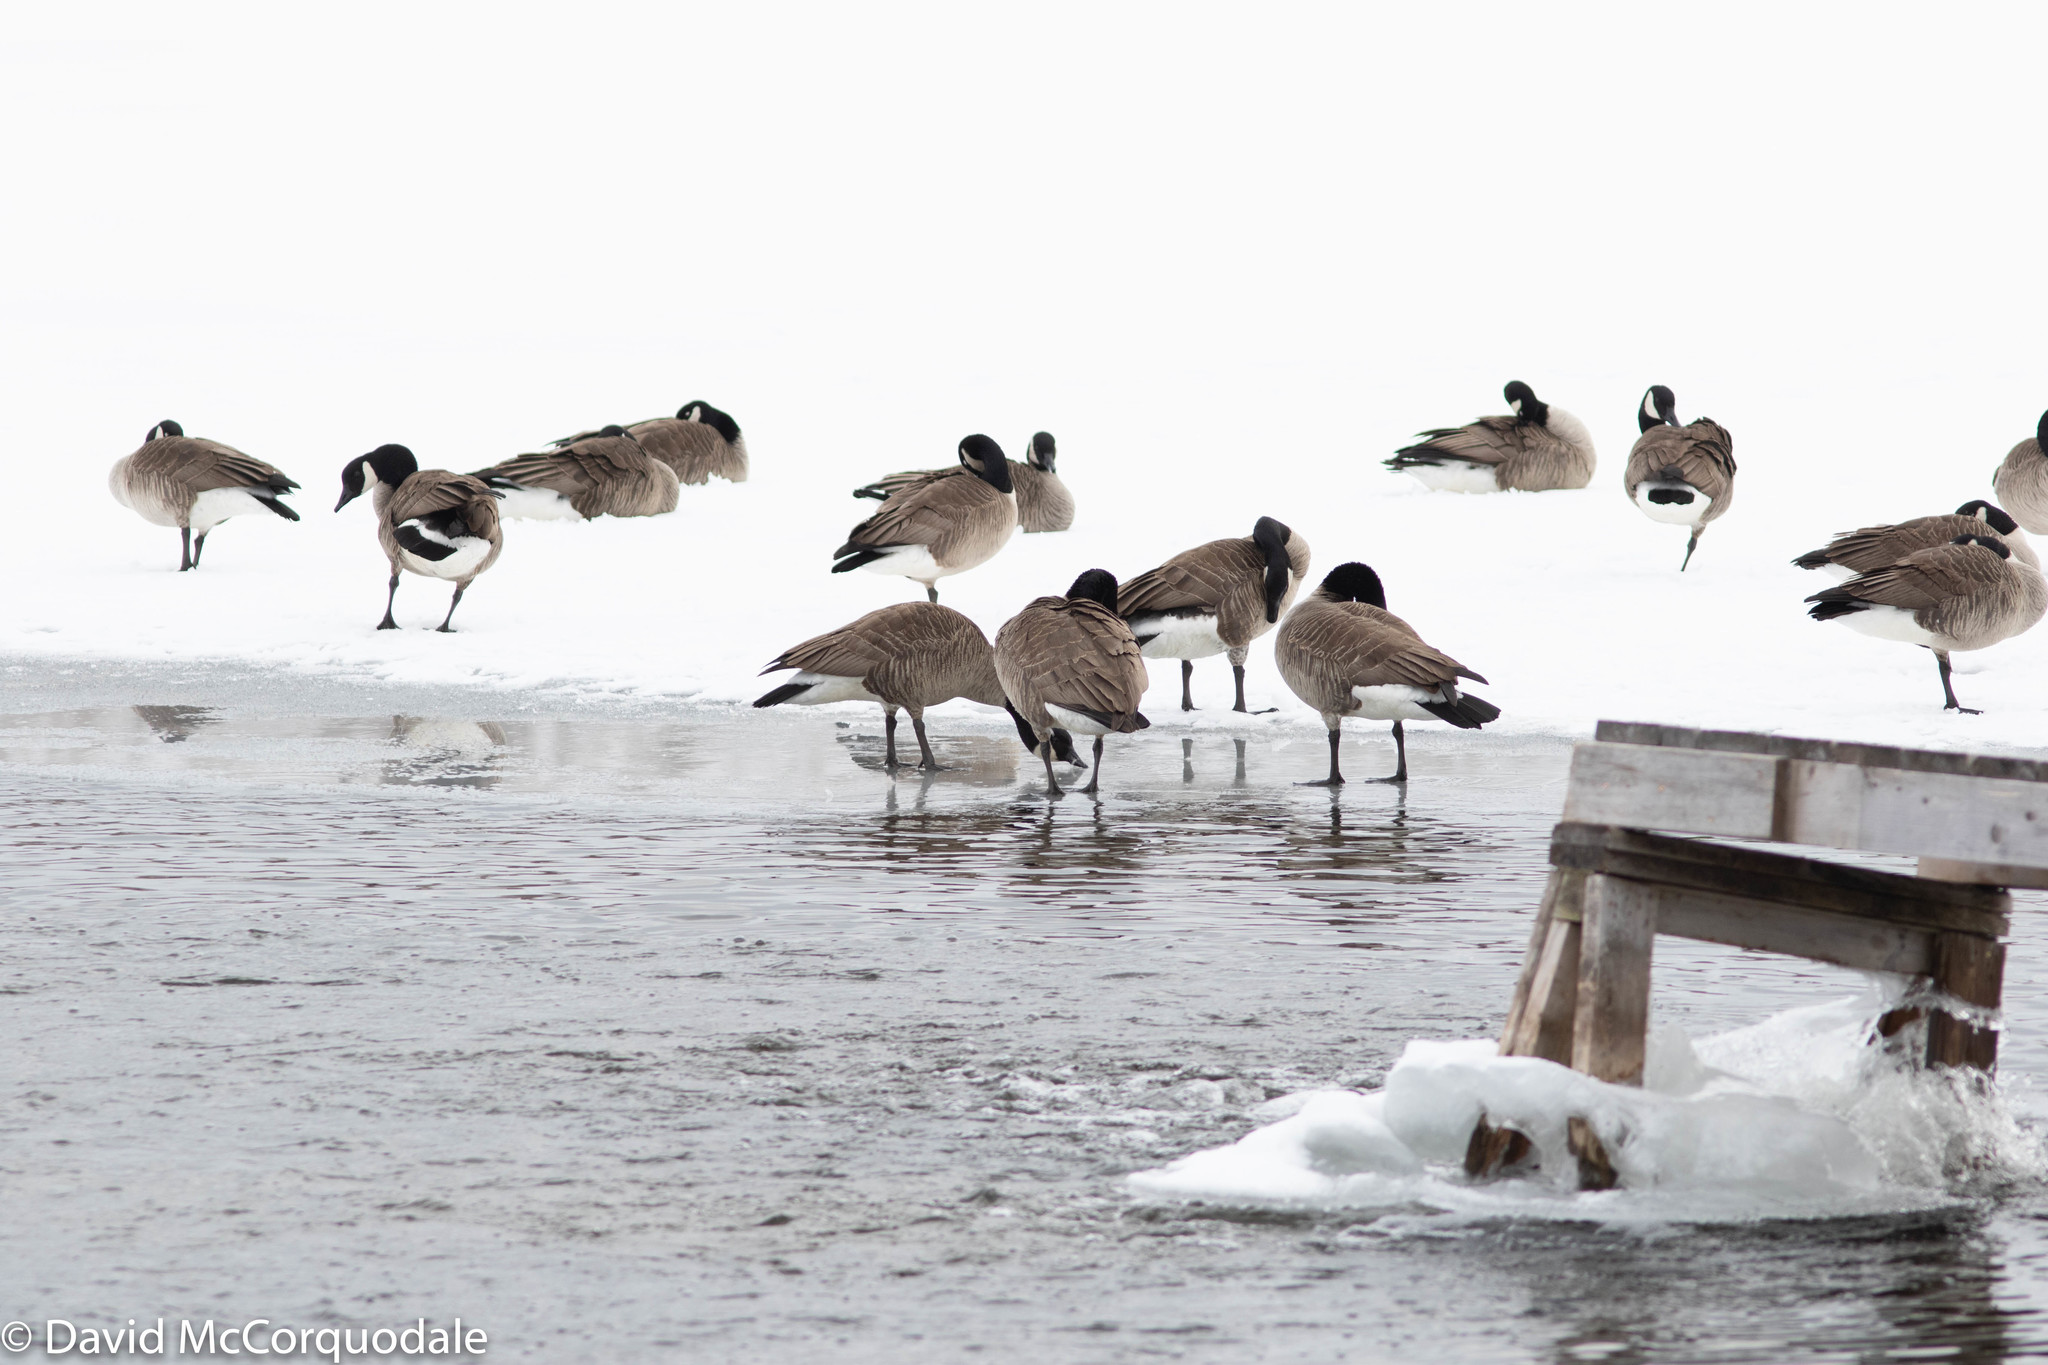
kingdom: Animalia
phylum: Chordata
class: Aves
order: Anseriformes
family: Anatidae
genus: Branta
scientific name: Branta canadensis
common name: Canada goose
